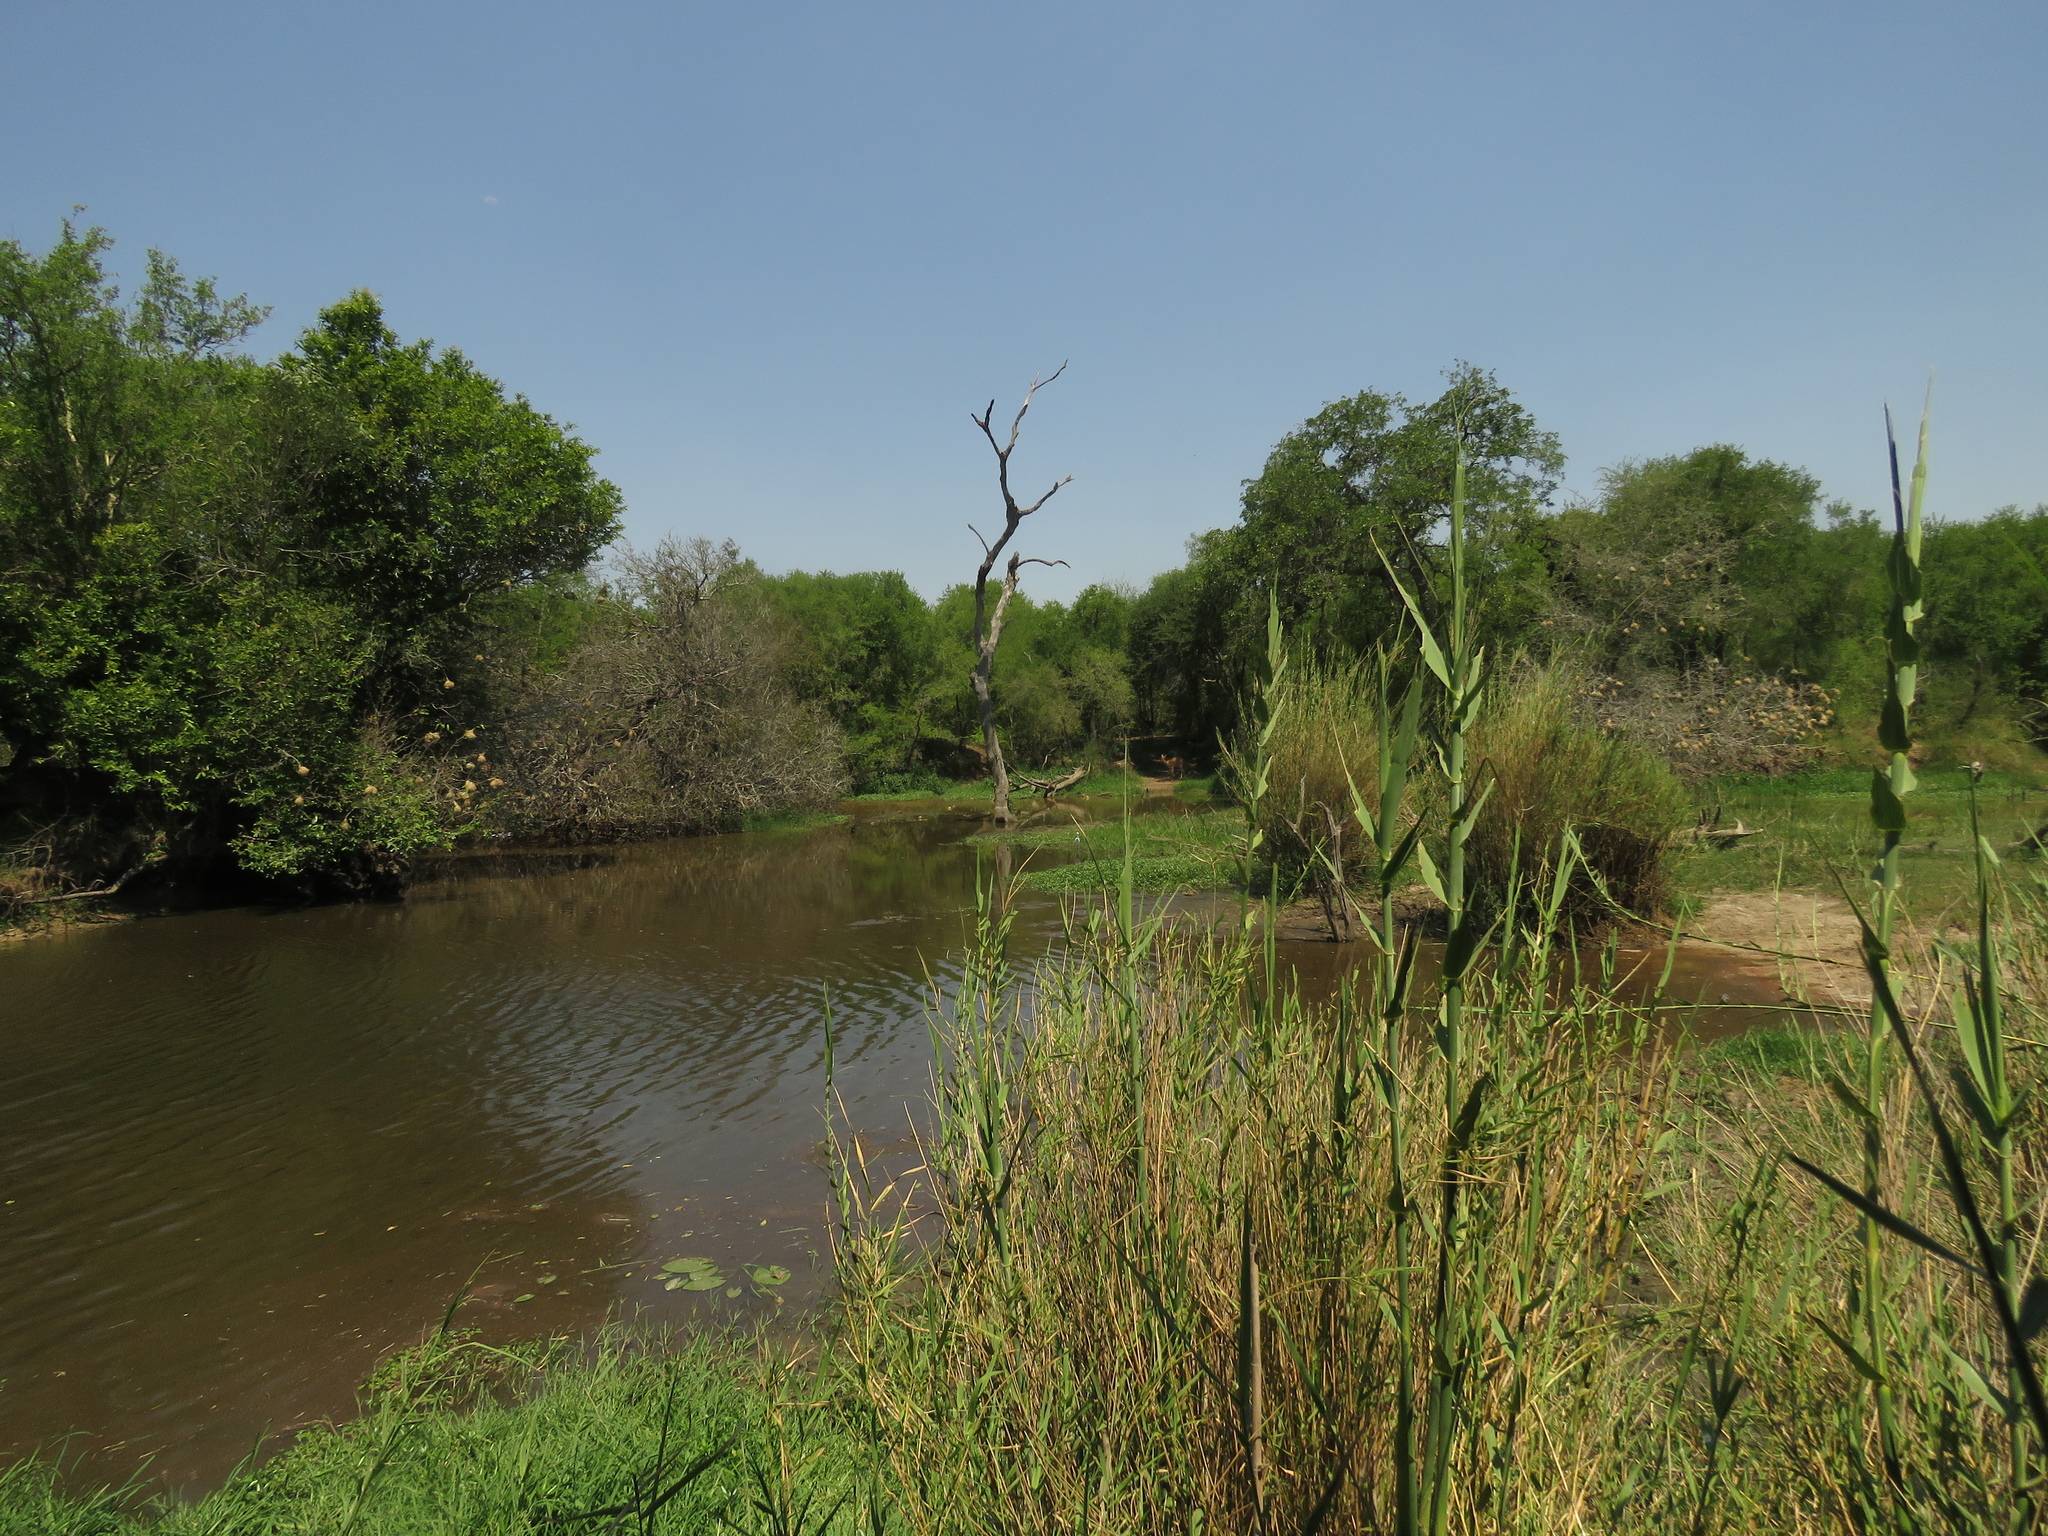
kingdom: Plantae
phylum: Tracheophyta
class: Liliopsida
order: Poales
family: Poaceae
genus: Phragmites
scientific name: Phragmites australis
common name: Common reed
